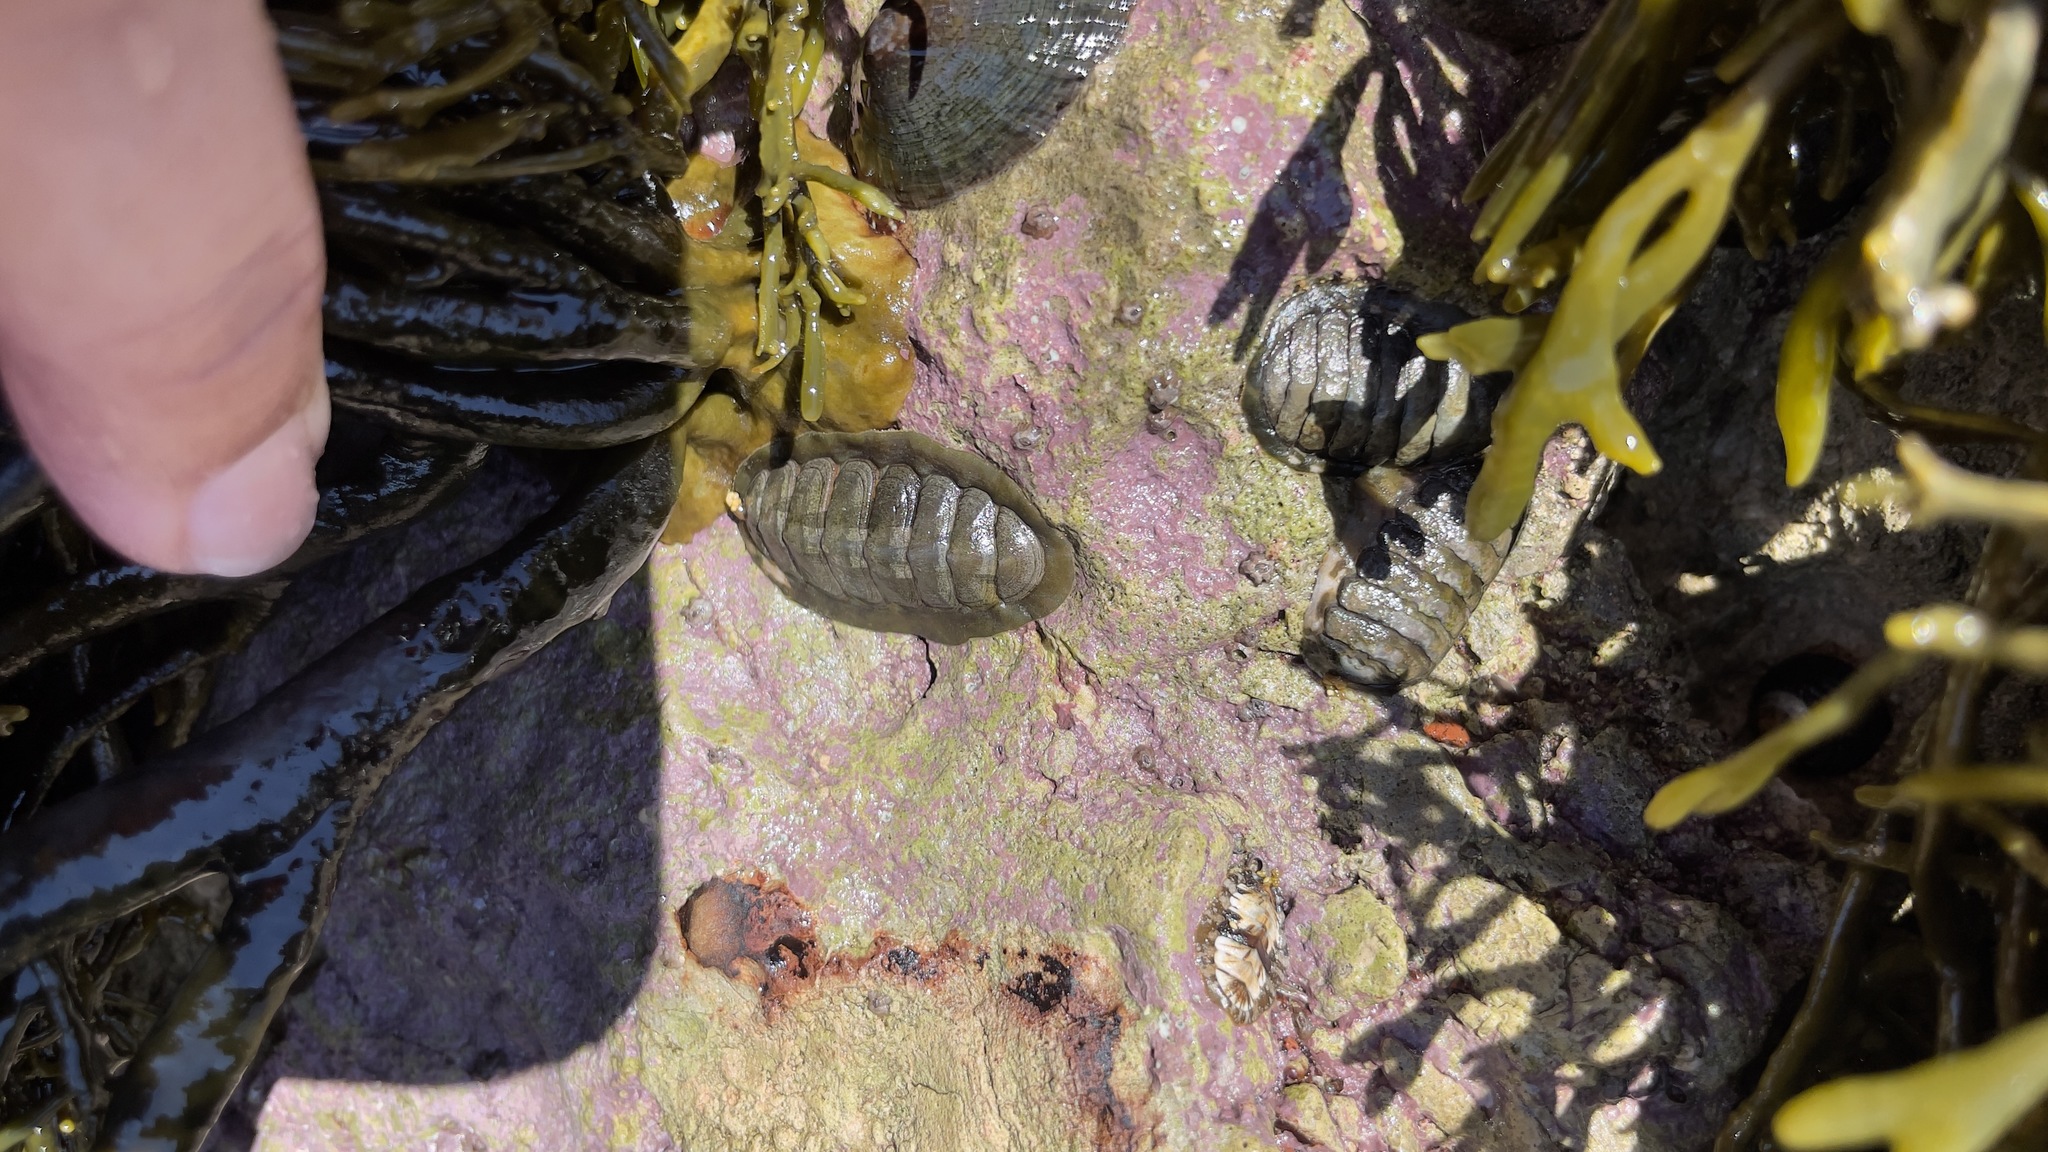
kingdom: Animalia
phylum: Mollusca
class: Polyplacophora
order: Chitonida
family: Tonicellidae
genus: Cyanoplax
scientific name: Cyanoplax hartwegii
